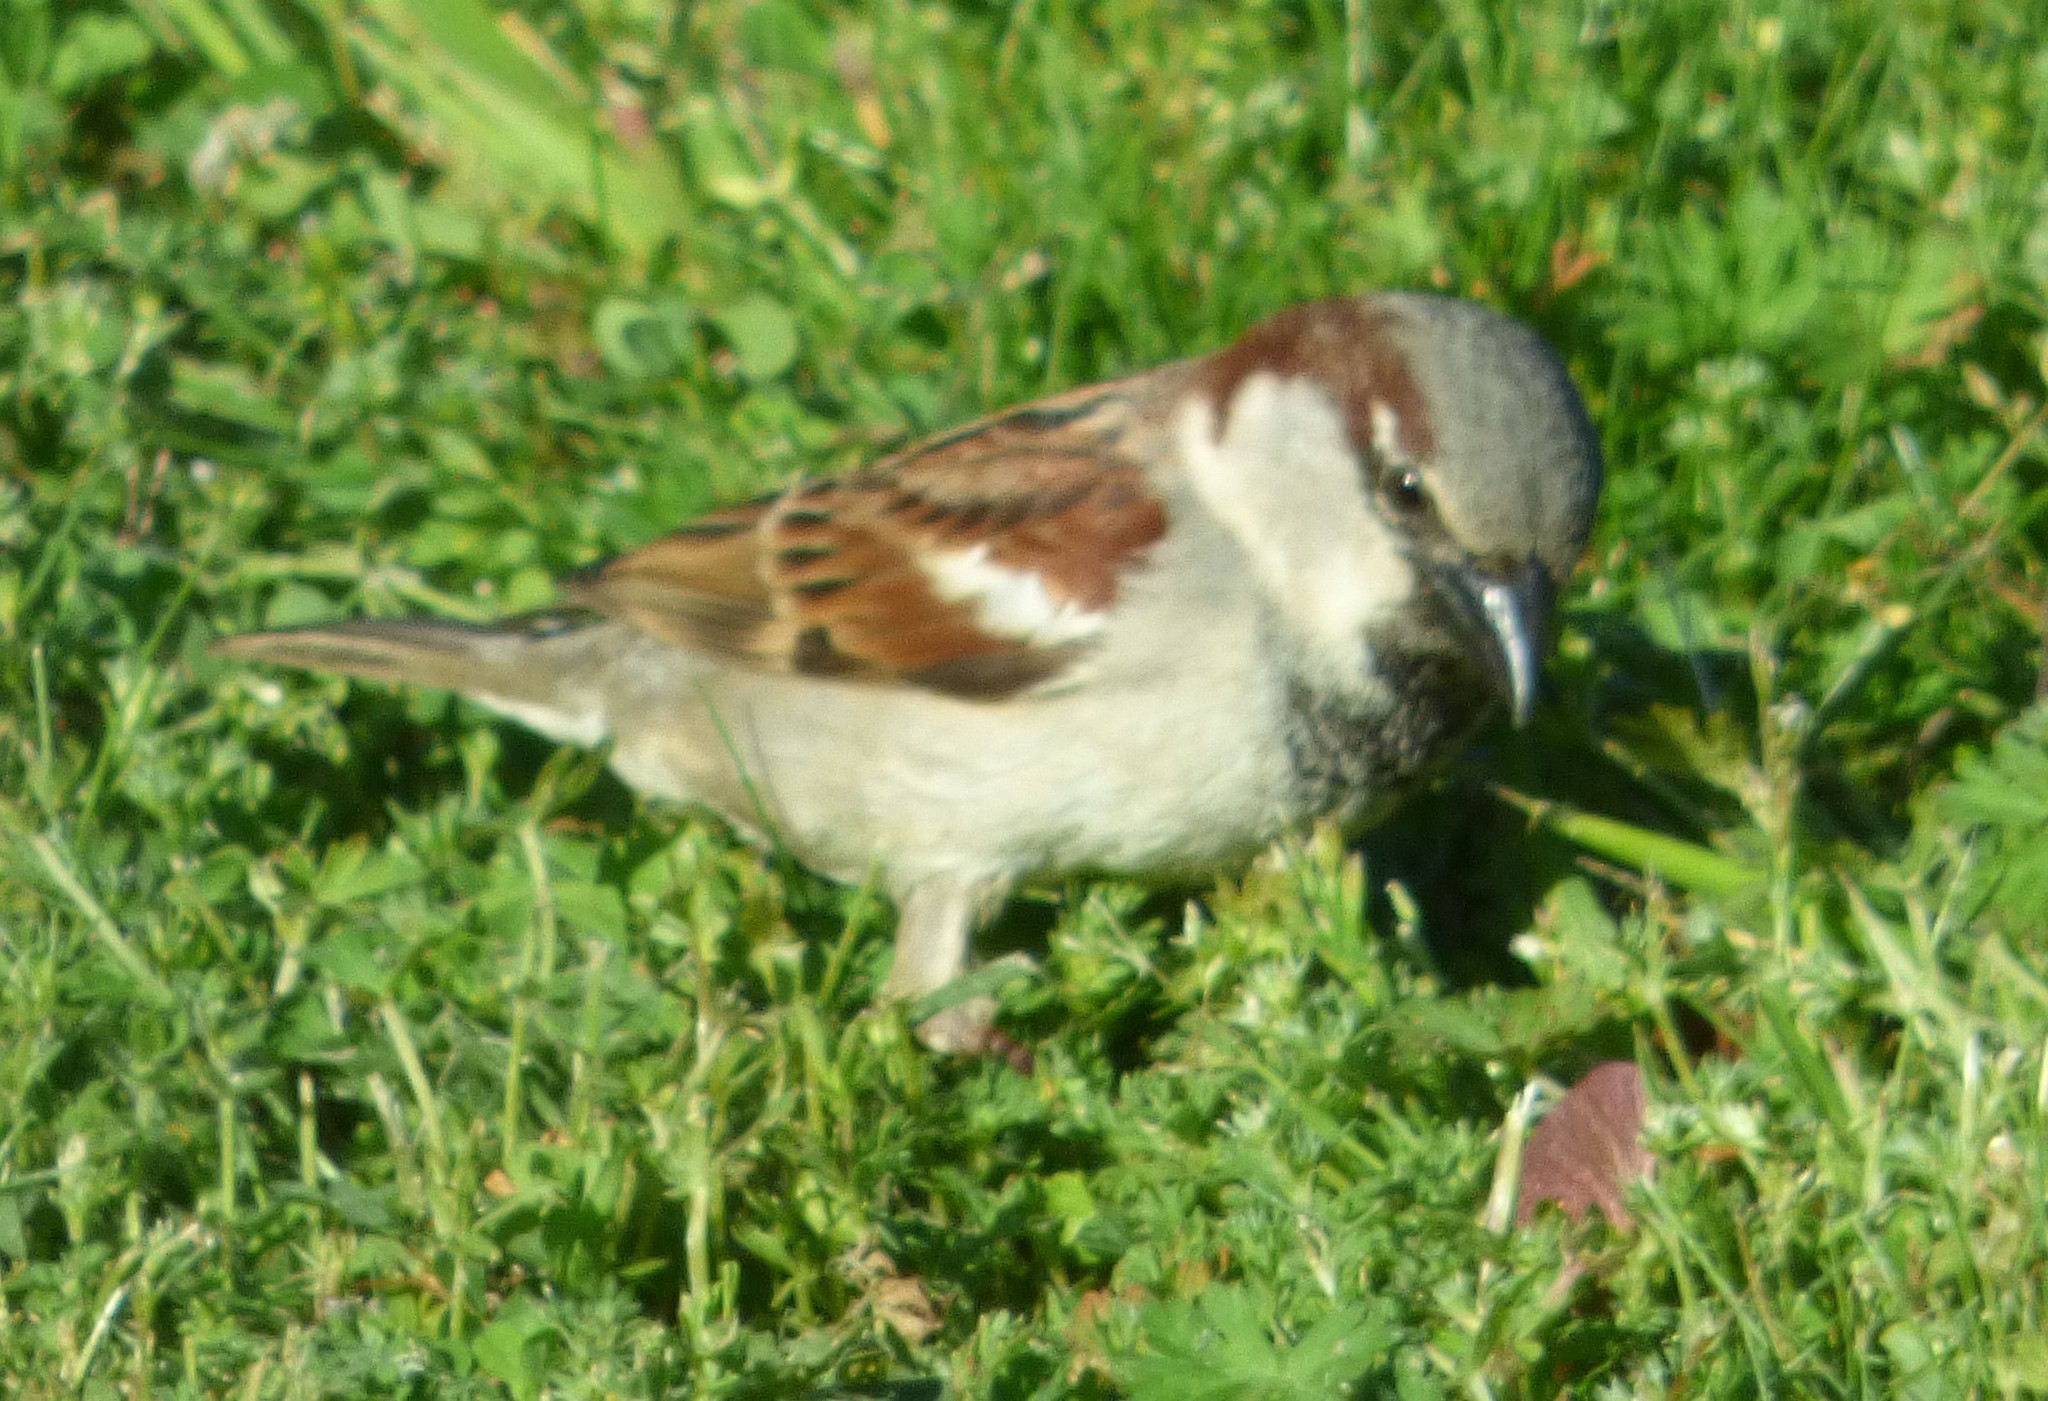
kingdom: Animalia
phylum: Chordata
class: Aves
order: Passeriformes
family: Passeridae
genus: Passer
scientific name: Passer domesticus
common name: House sparrow
